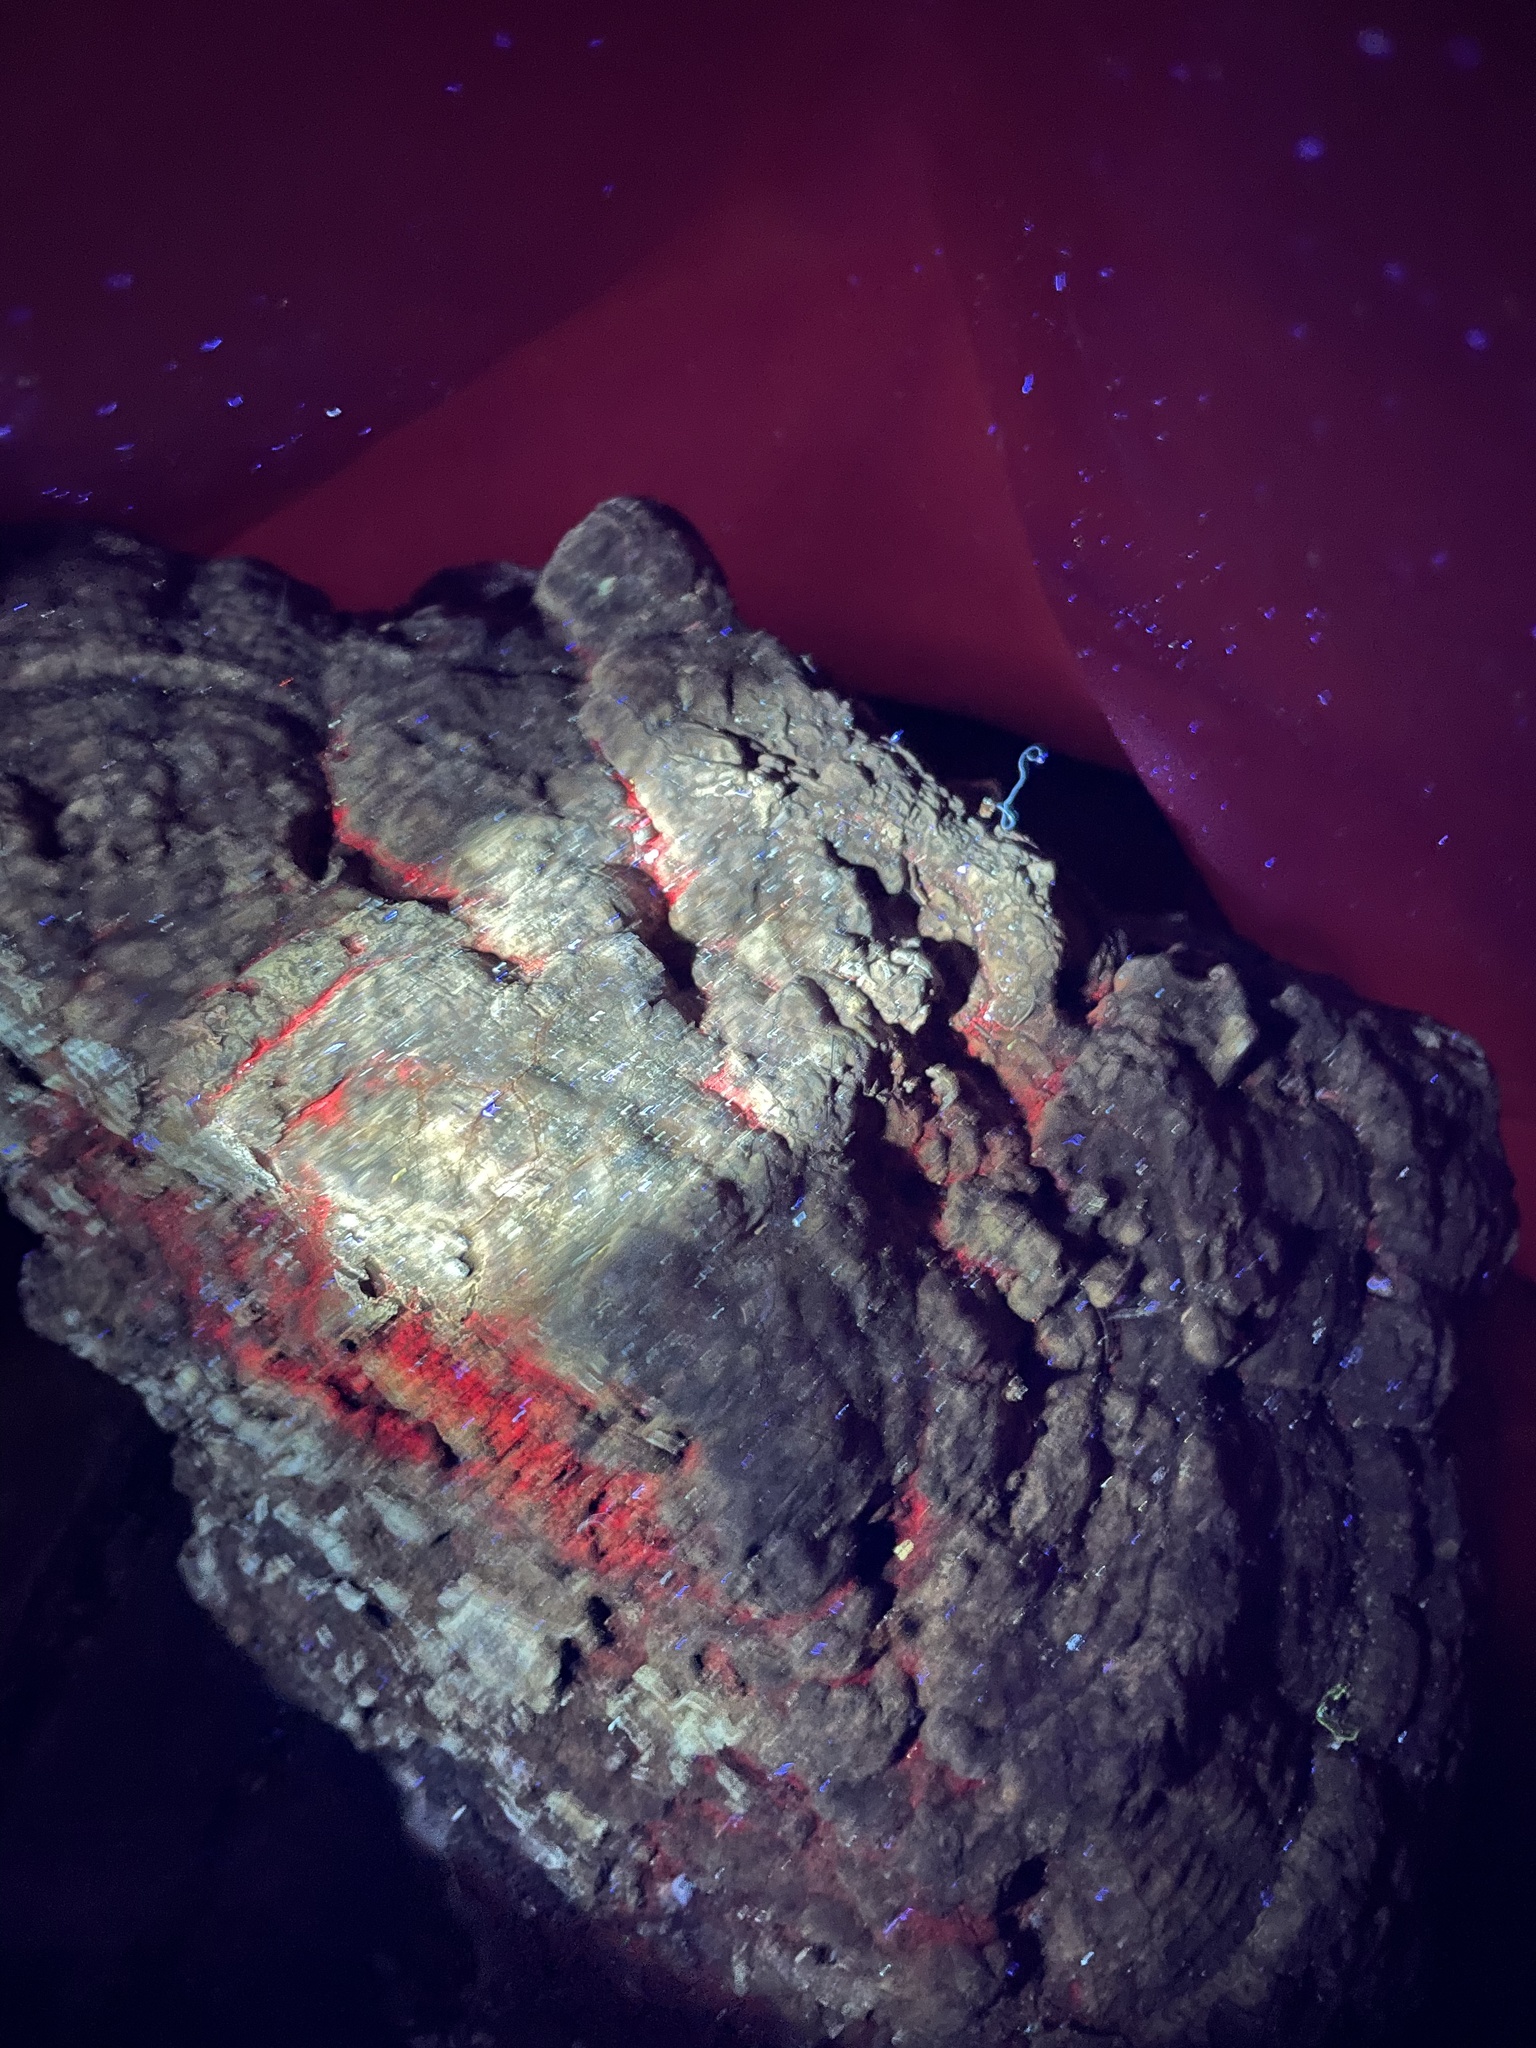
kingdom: Fungi
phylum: Basidiomycota
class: Agaricomycetes
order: Polyporales
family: Polyporaceae
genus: Ganoderma
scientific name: Ganoderma brownii
